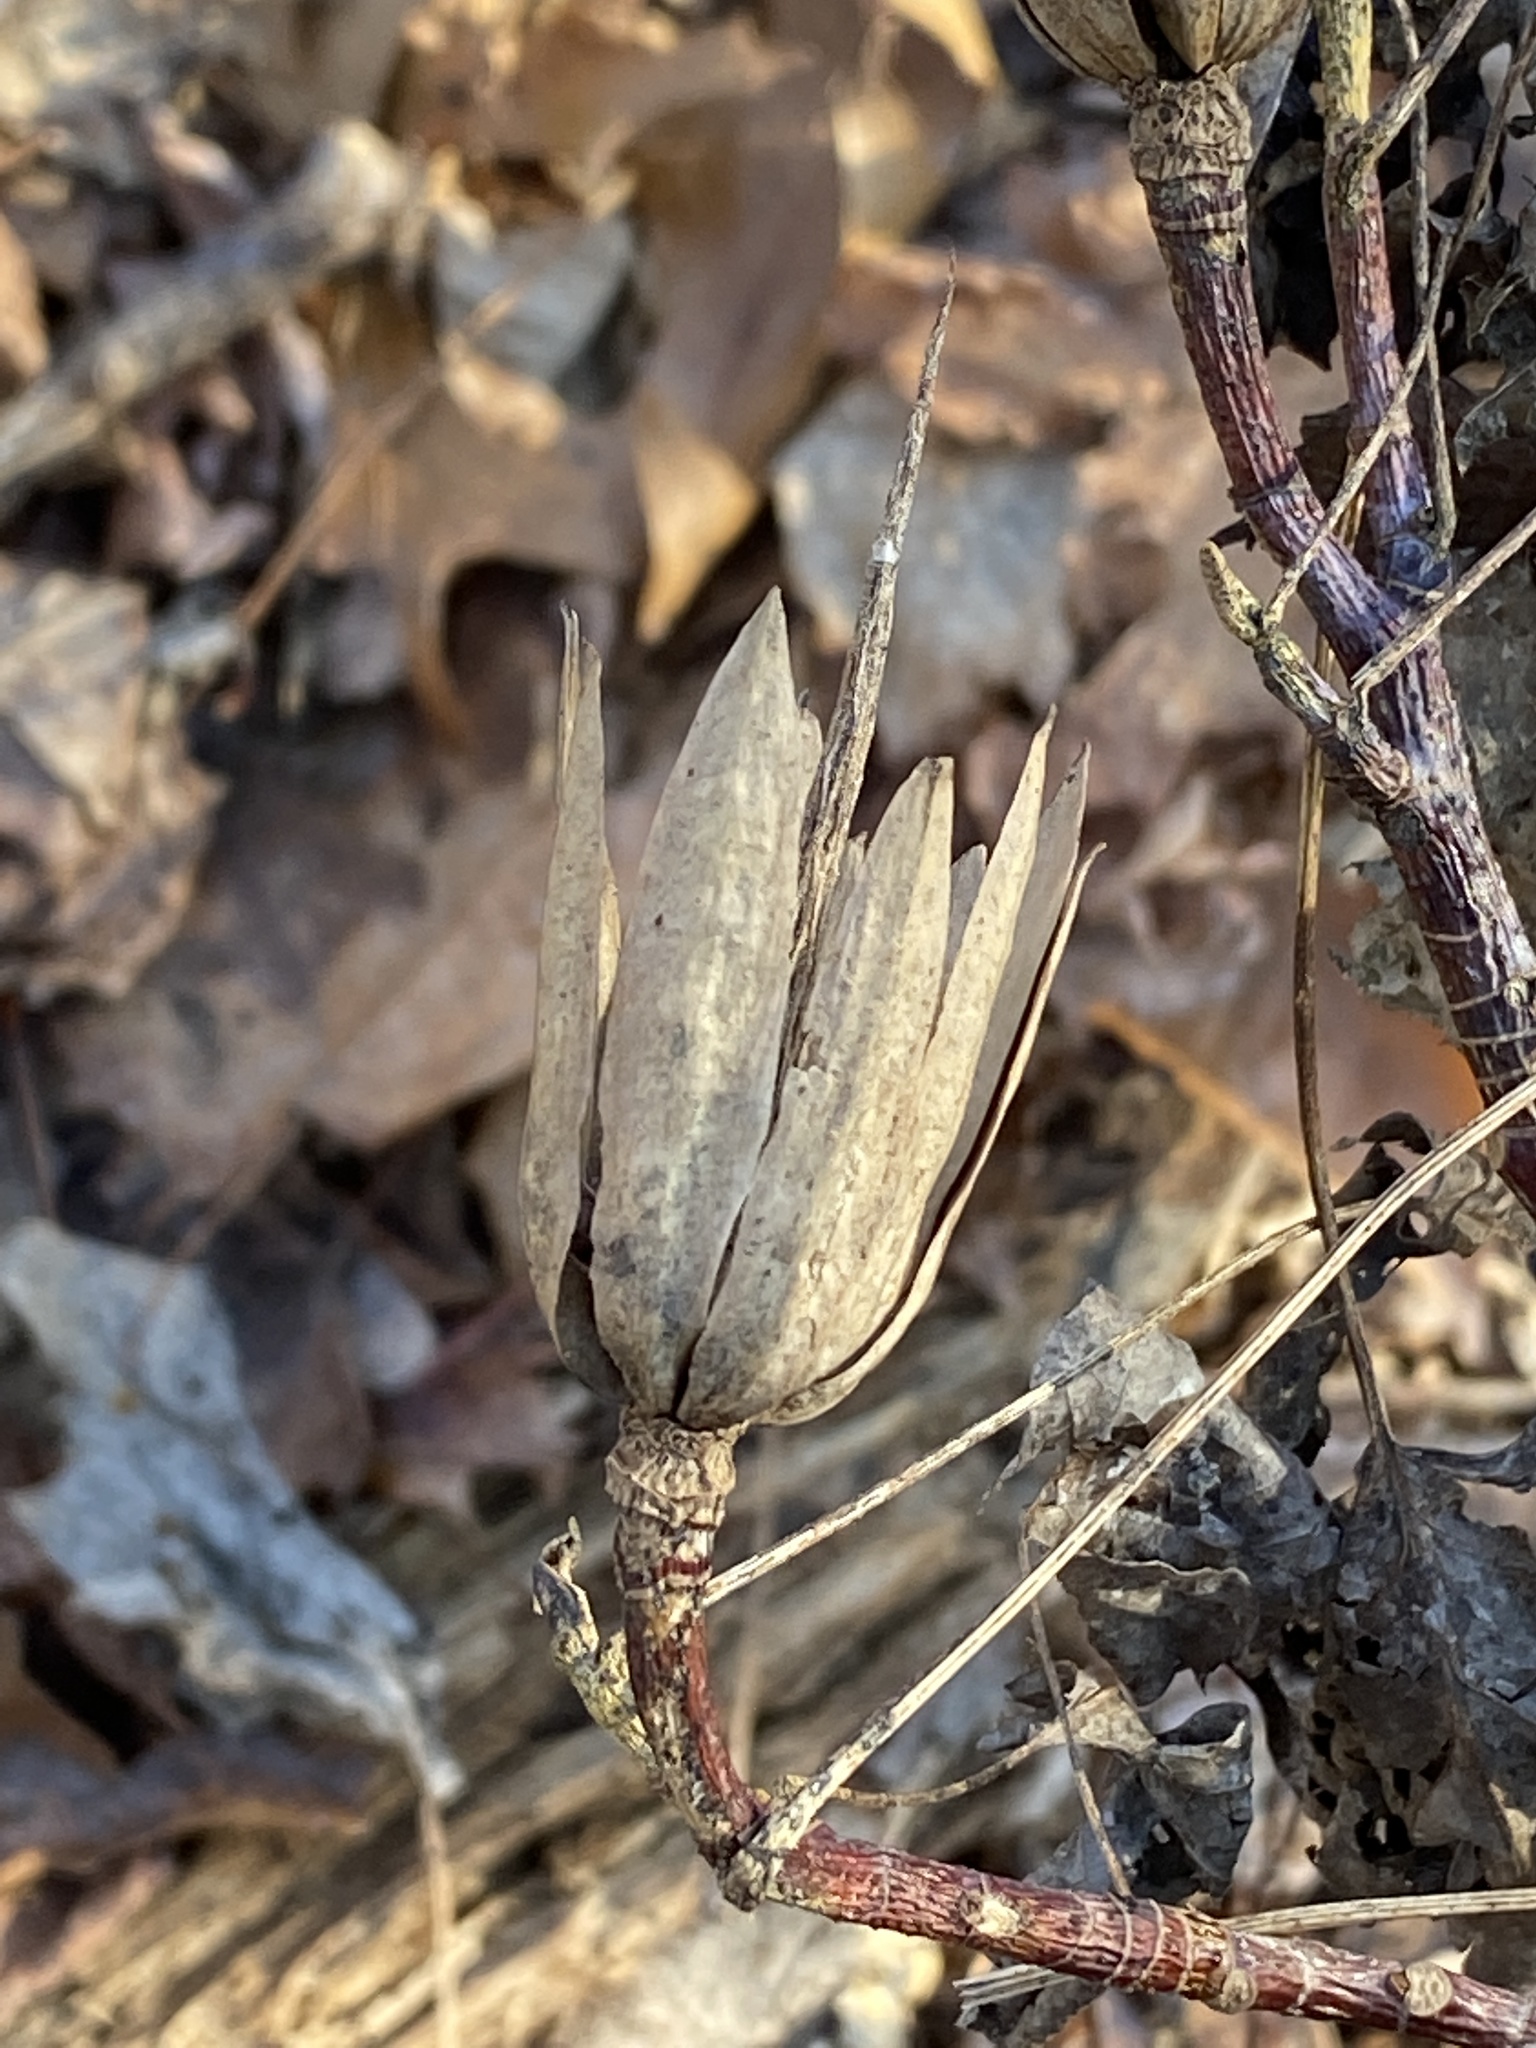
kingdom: Plantae
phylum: Tracheophyta
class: Magnoliopsida
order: Magnoliales
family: Magnoliaceae
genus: Liriodendron
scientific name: Liriodendron tulipifera
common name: Tulip tree
